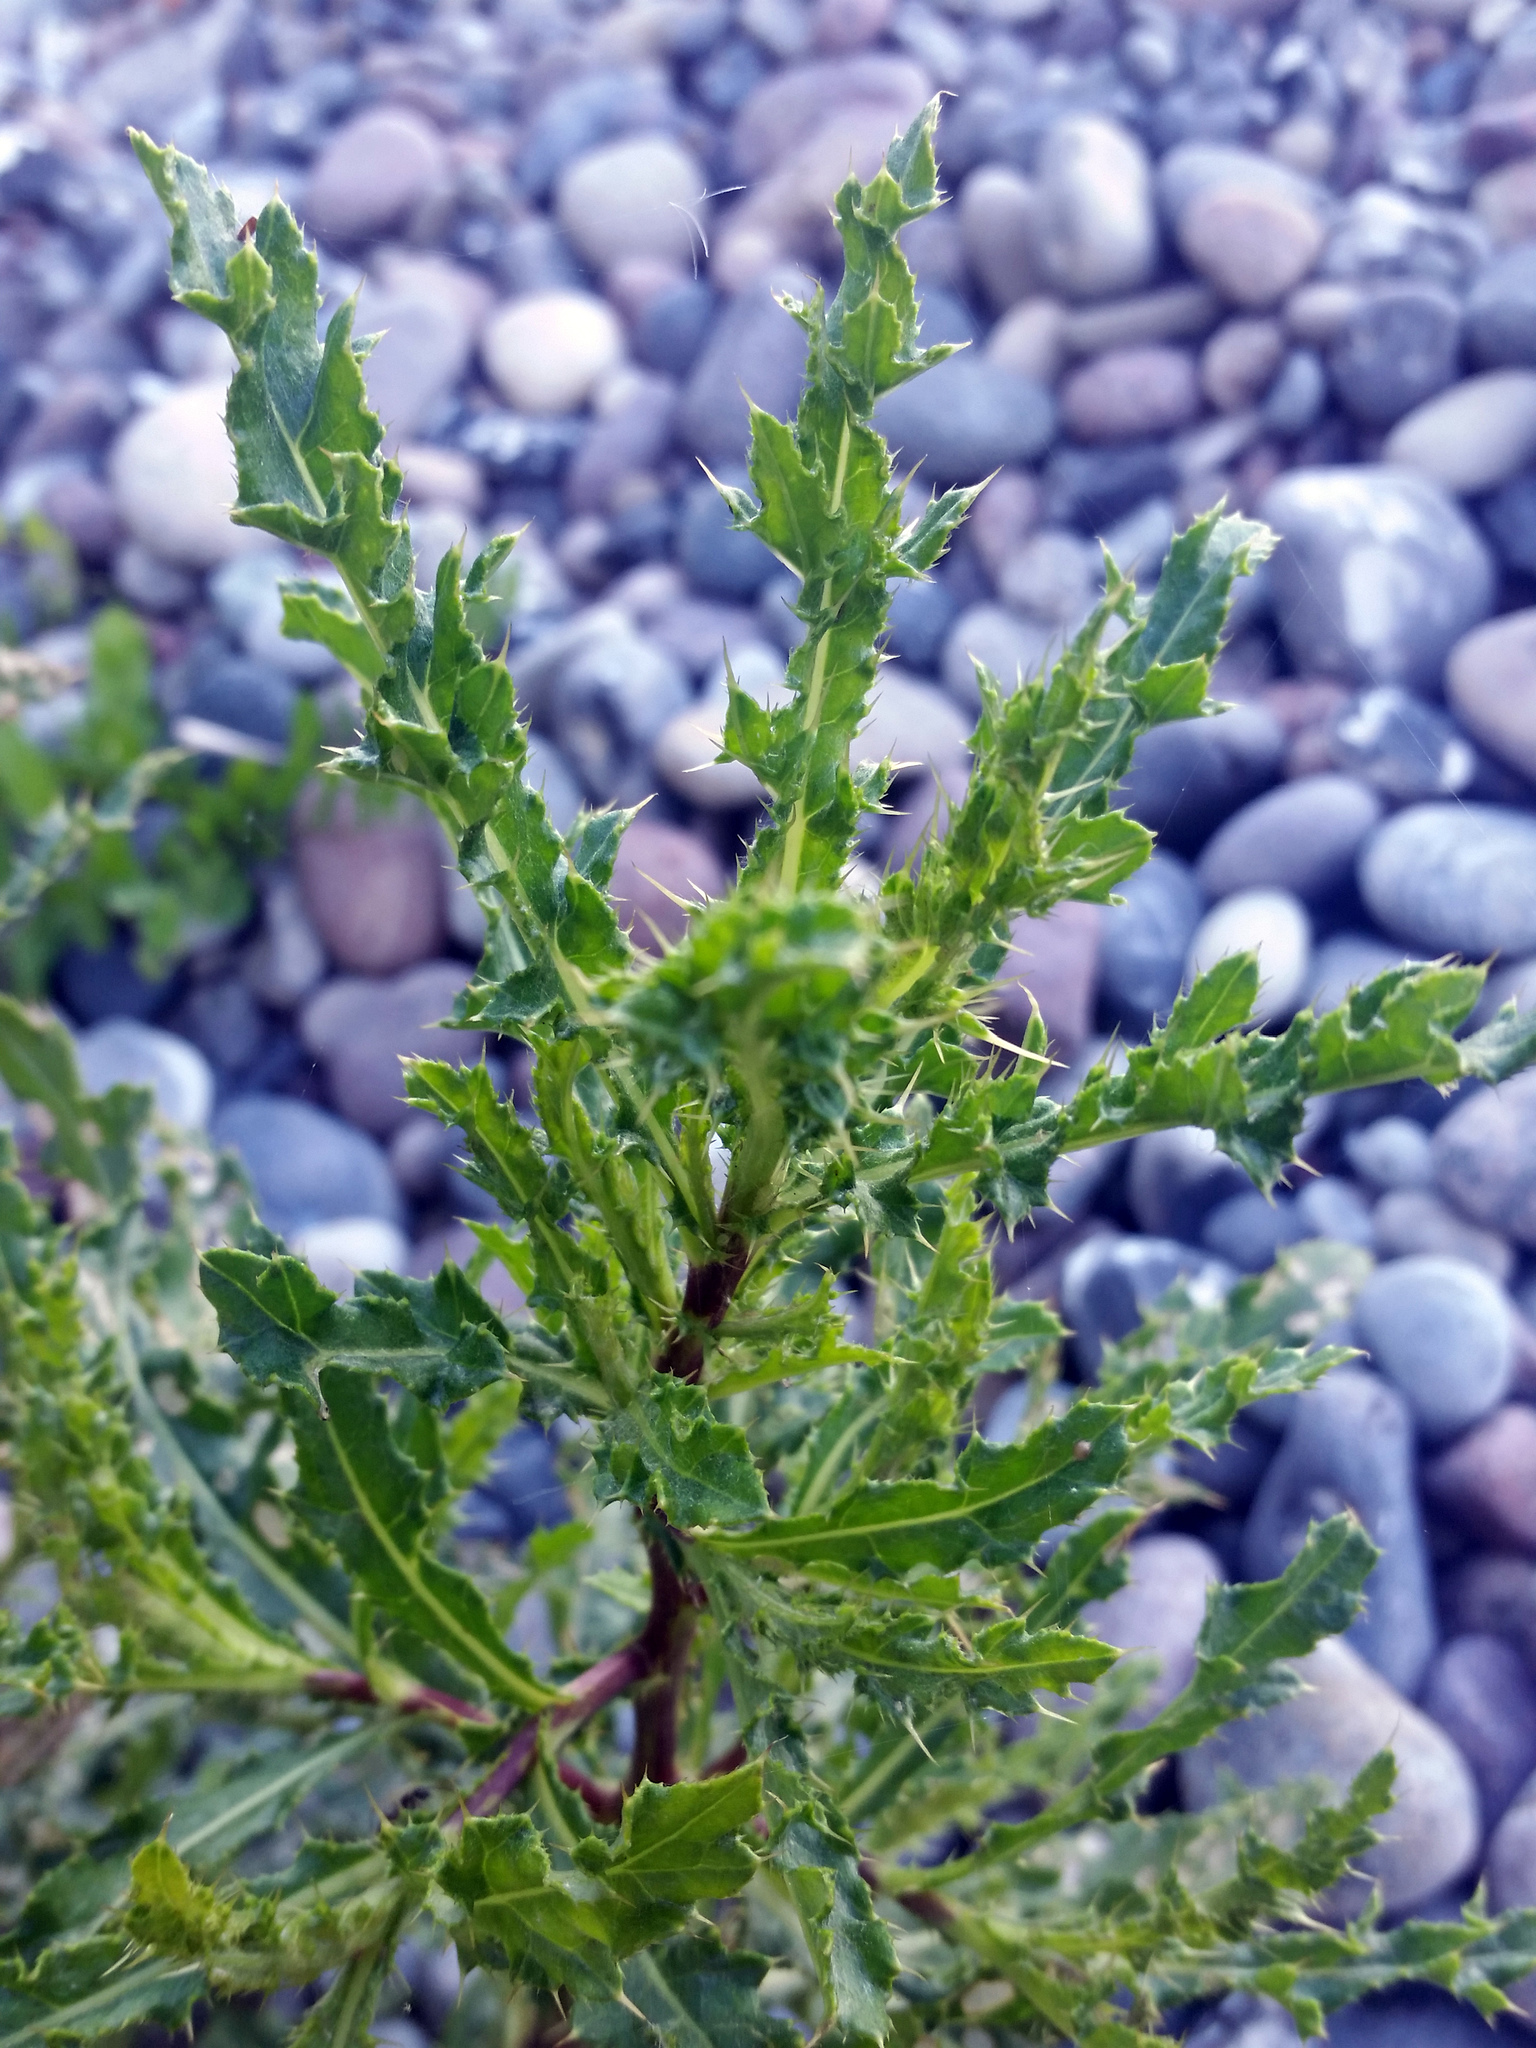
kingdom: Plantae
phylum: Tracheophyta
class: Magnoliopsida
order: Asterales
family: Asteraceae
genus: Cirsium
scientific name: Cirsium arvense
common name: Creeping thistle
